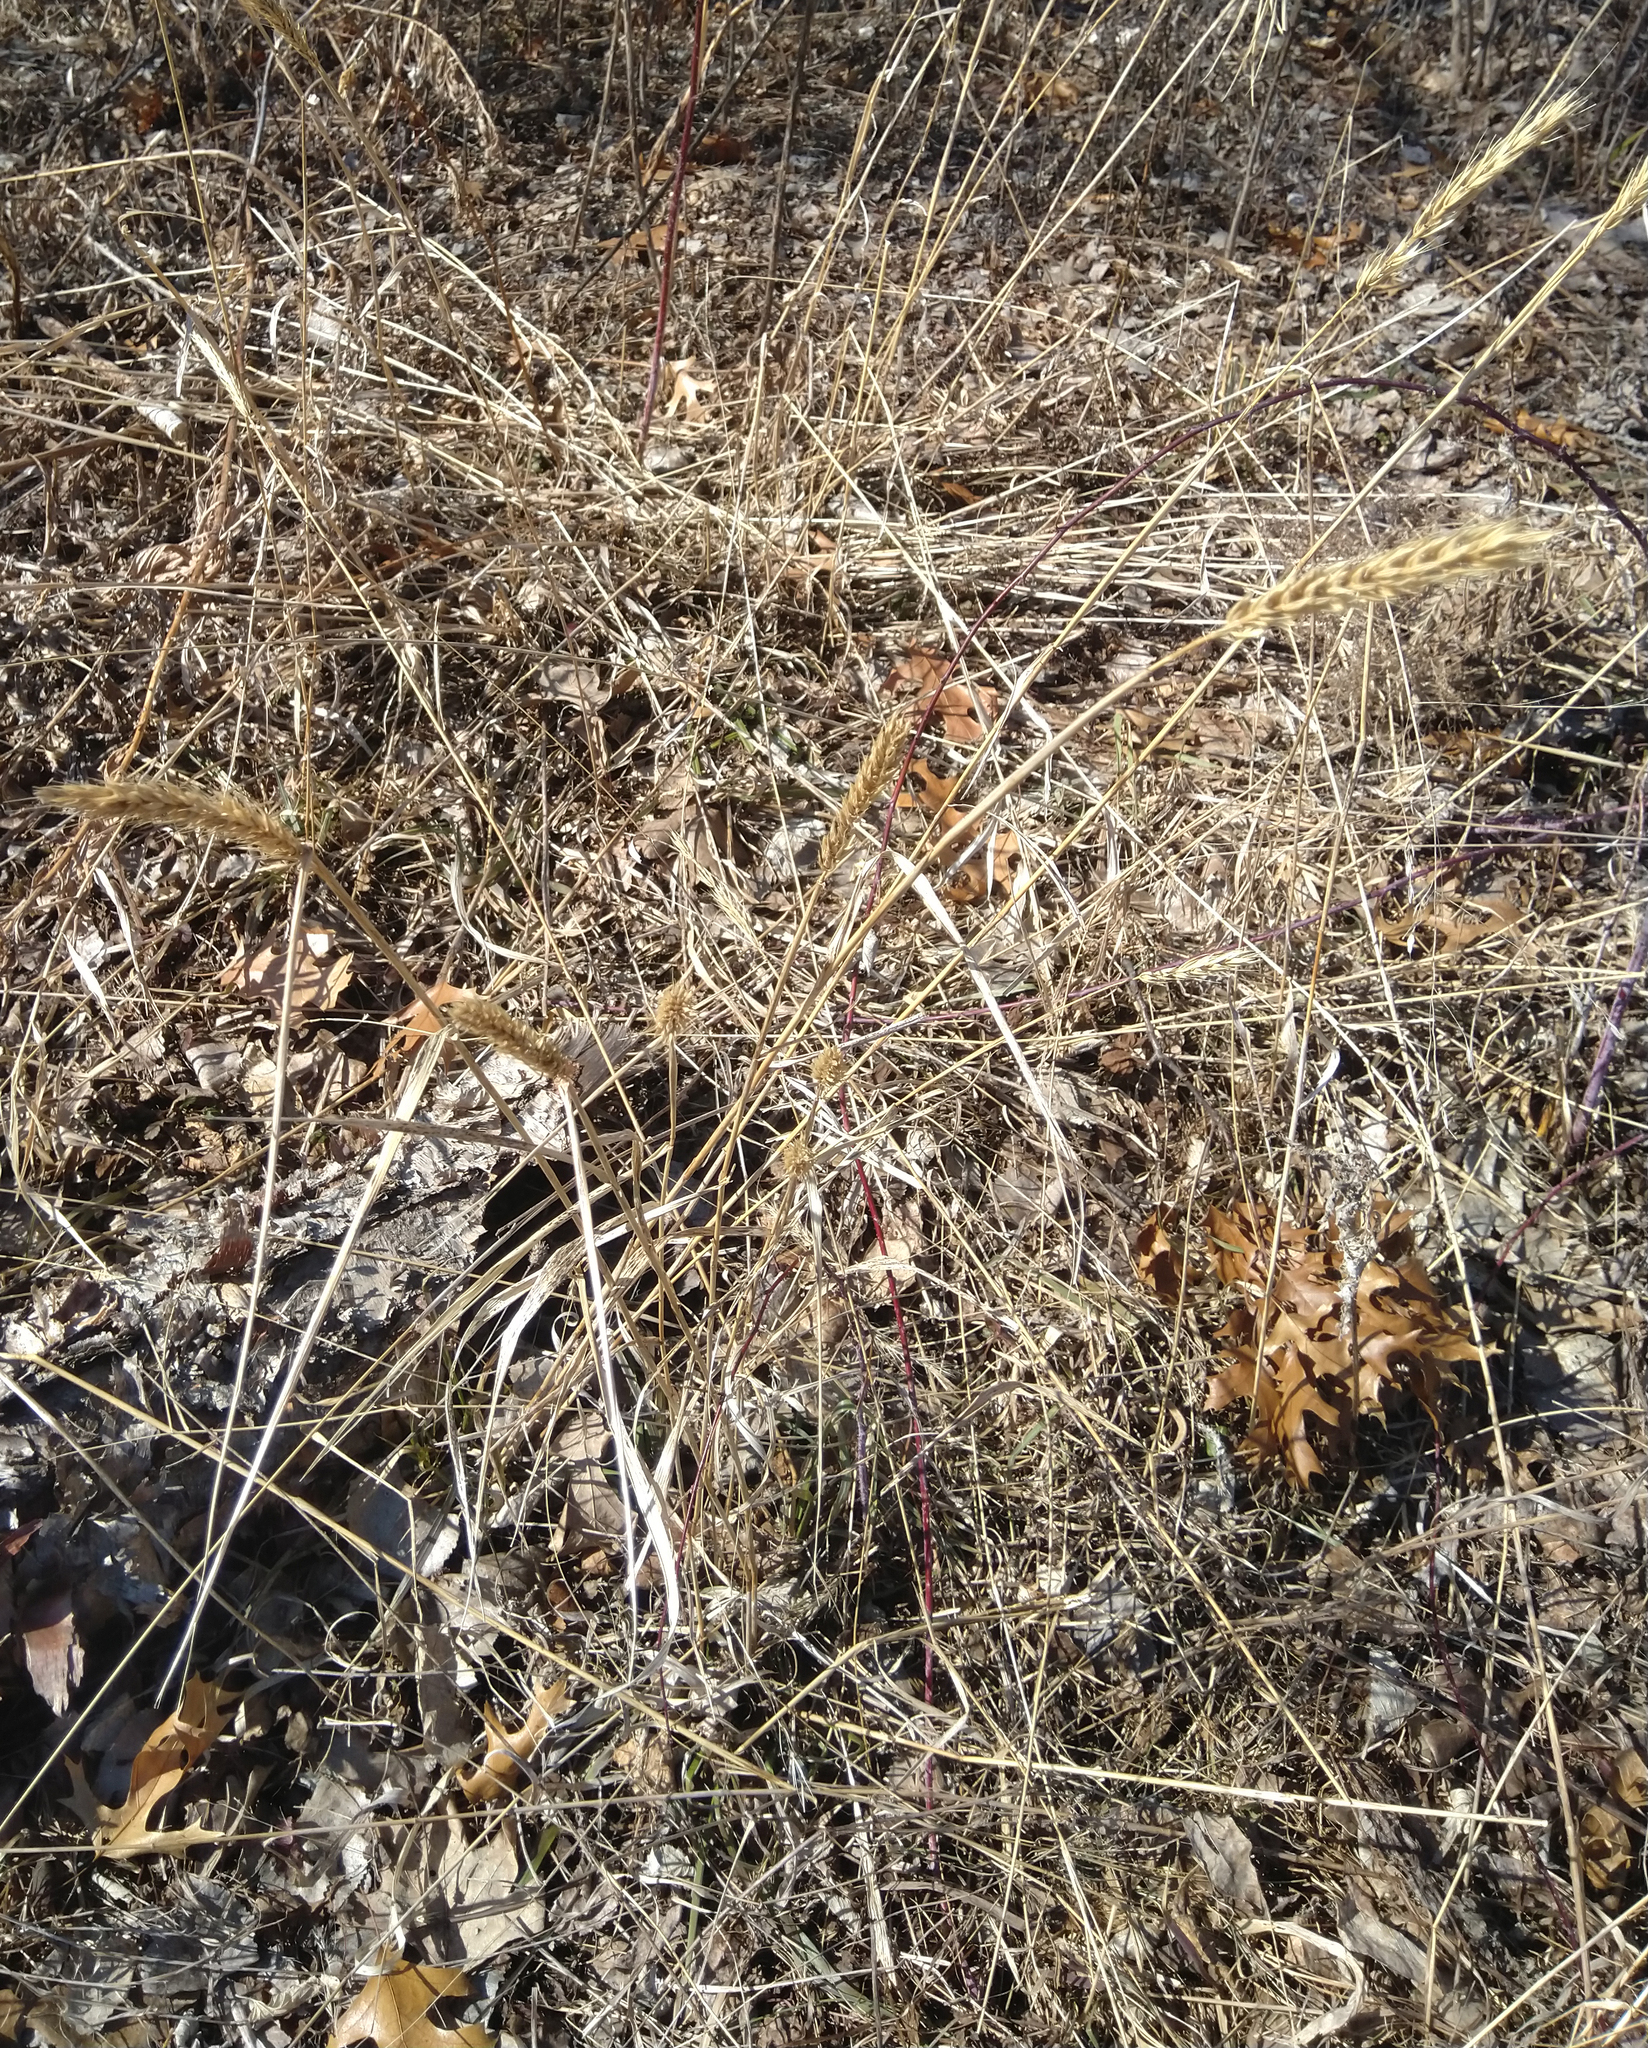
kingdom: Plantae
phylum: Tracheophyta
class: Liliopsida
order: Poales
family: Poaceae
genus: Elymus
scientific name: Elymus virginicus
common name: Common eastern wildrye
